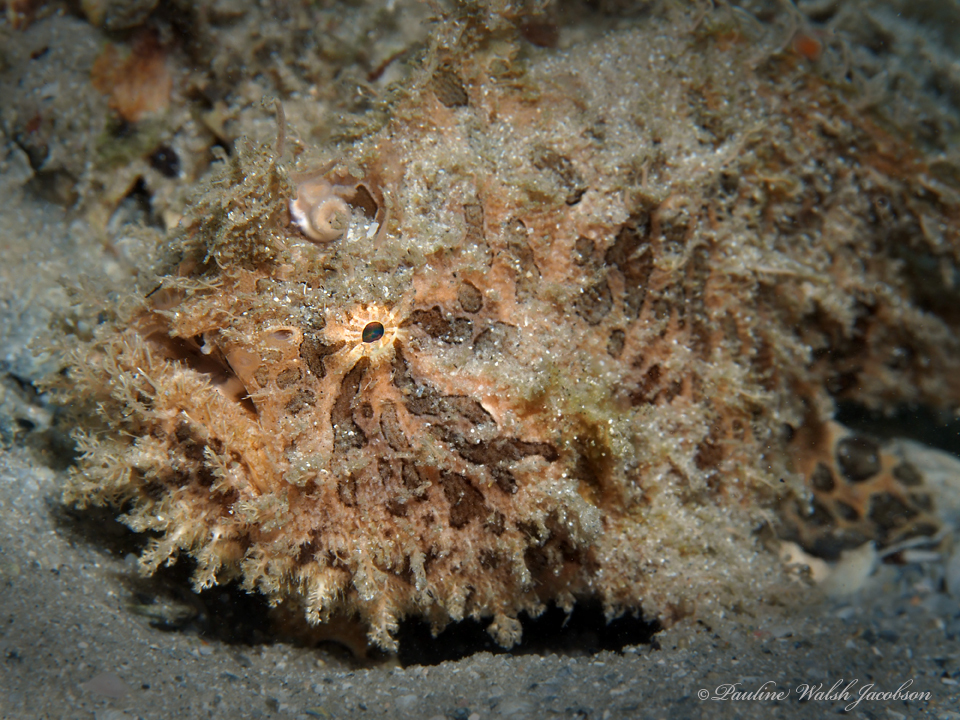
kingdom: Animalia
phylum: Chordata
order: Lophiiformes
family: Antennariidae
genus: Antennarius
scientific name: Antennarius striatus
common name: Striated frogfish
